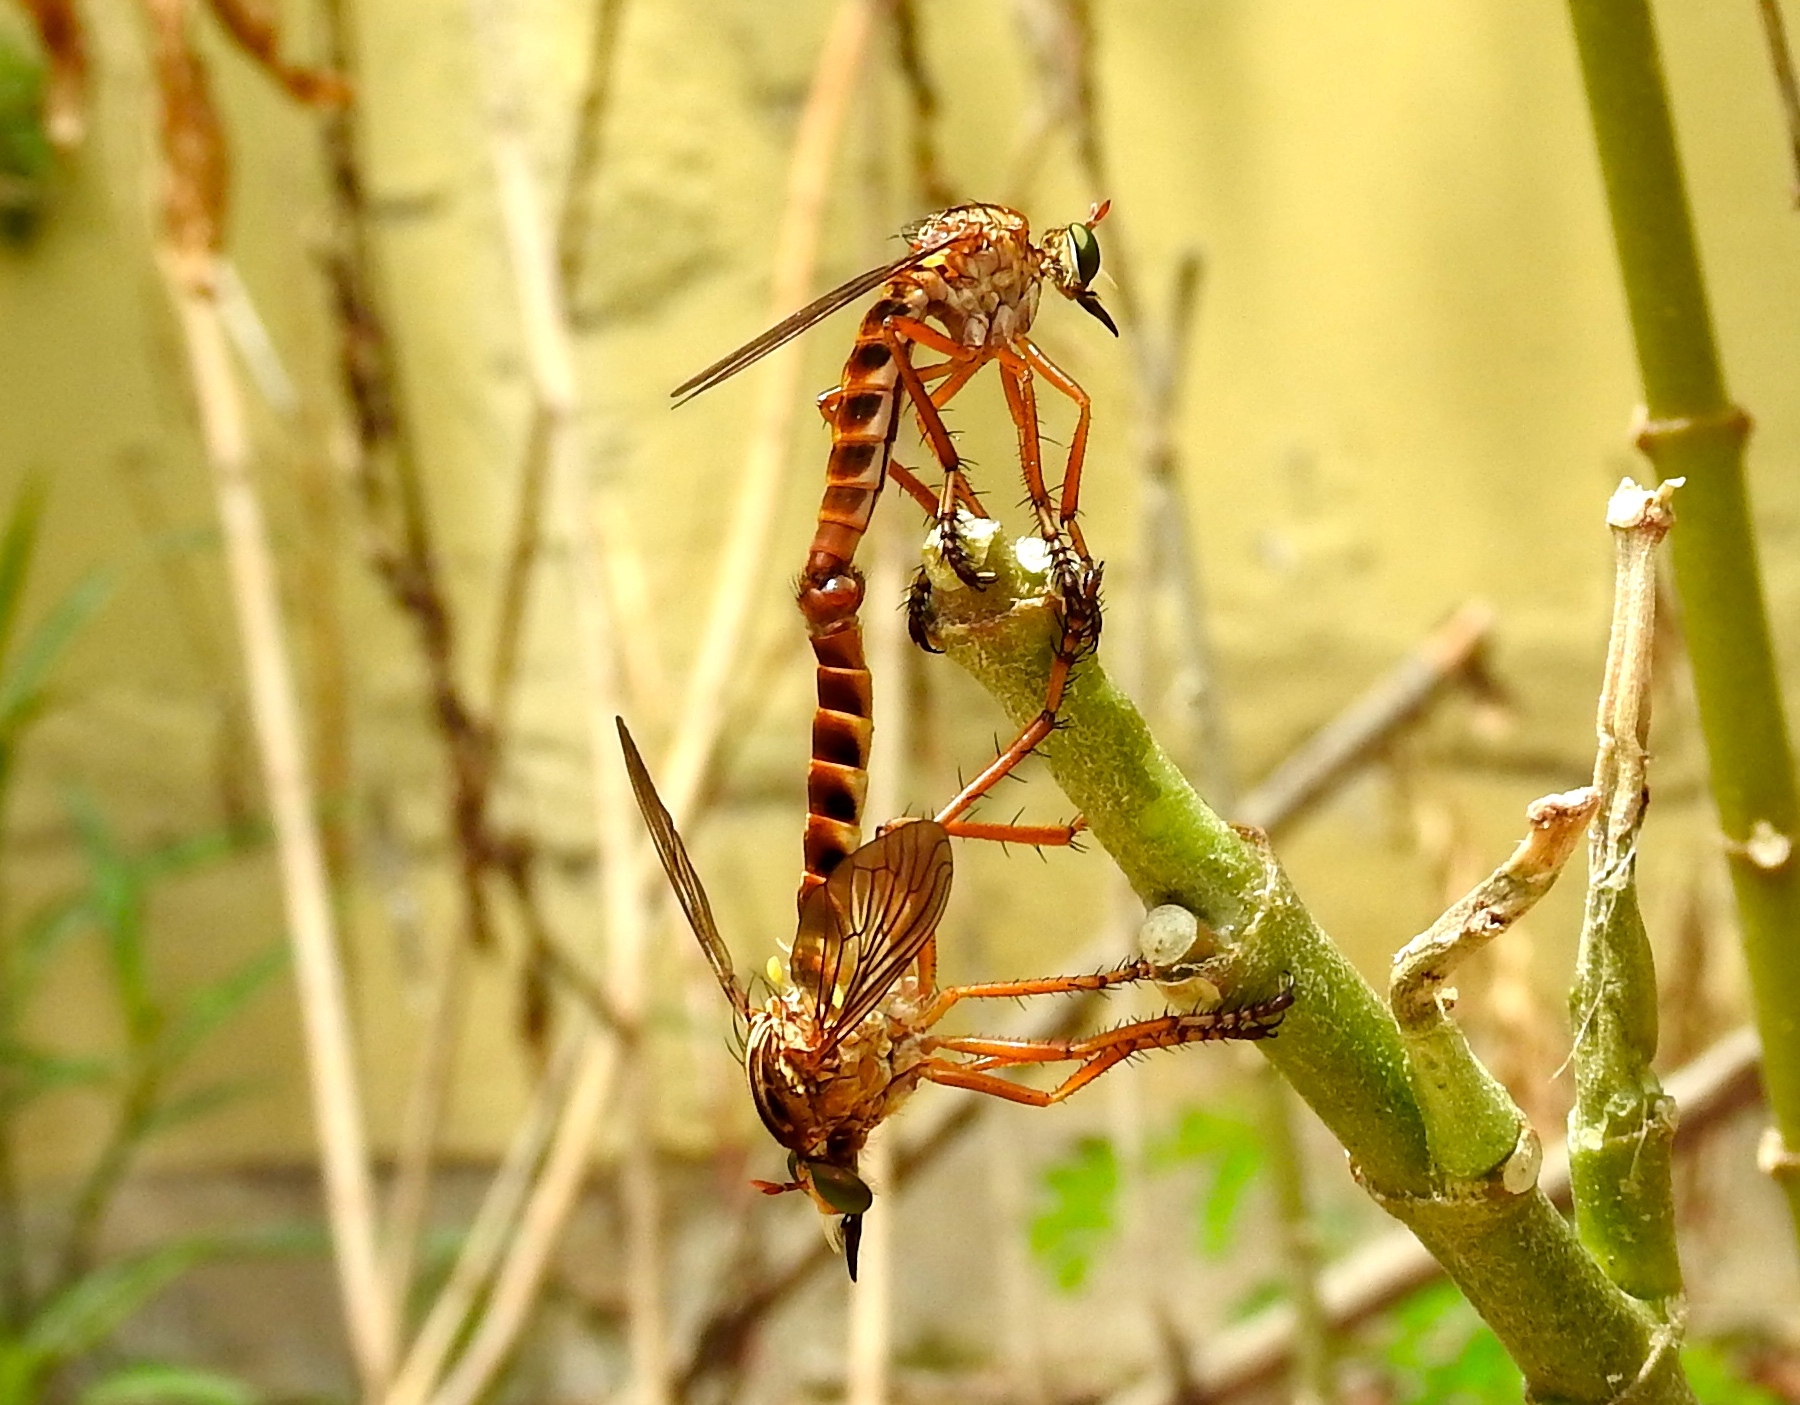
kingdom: Animalia
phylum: Arthropoda
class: Insecta
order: Diptera
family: Asilidae
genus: Diogmites
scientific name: Diogmites angustipennis
